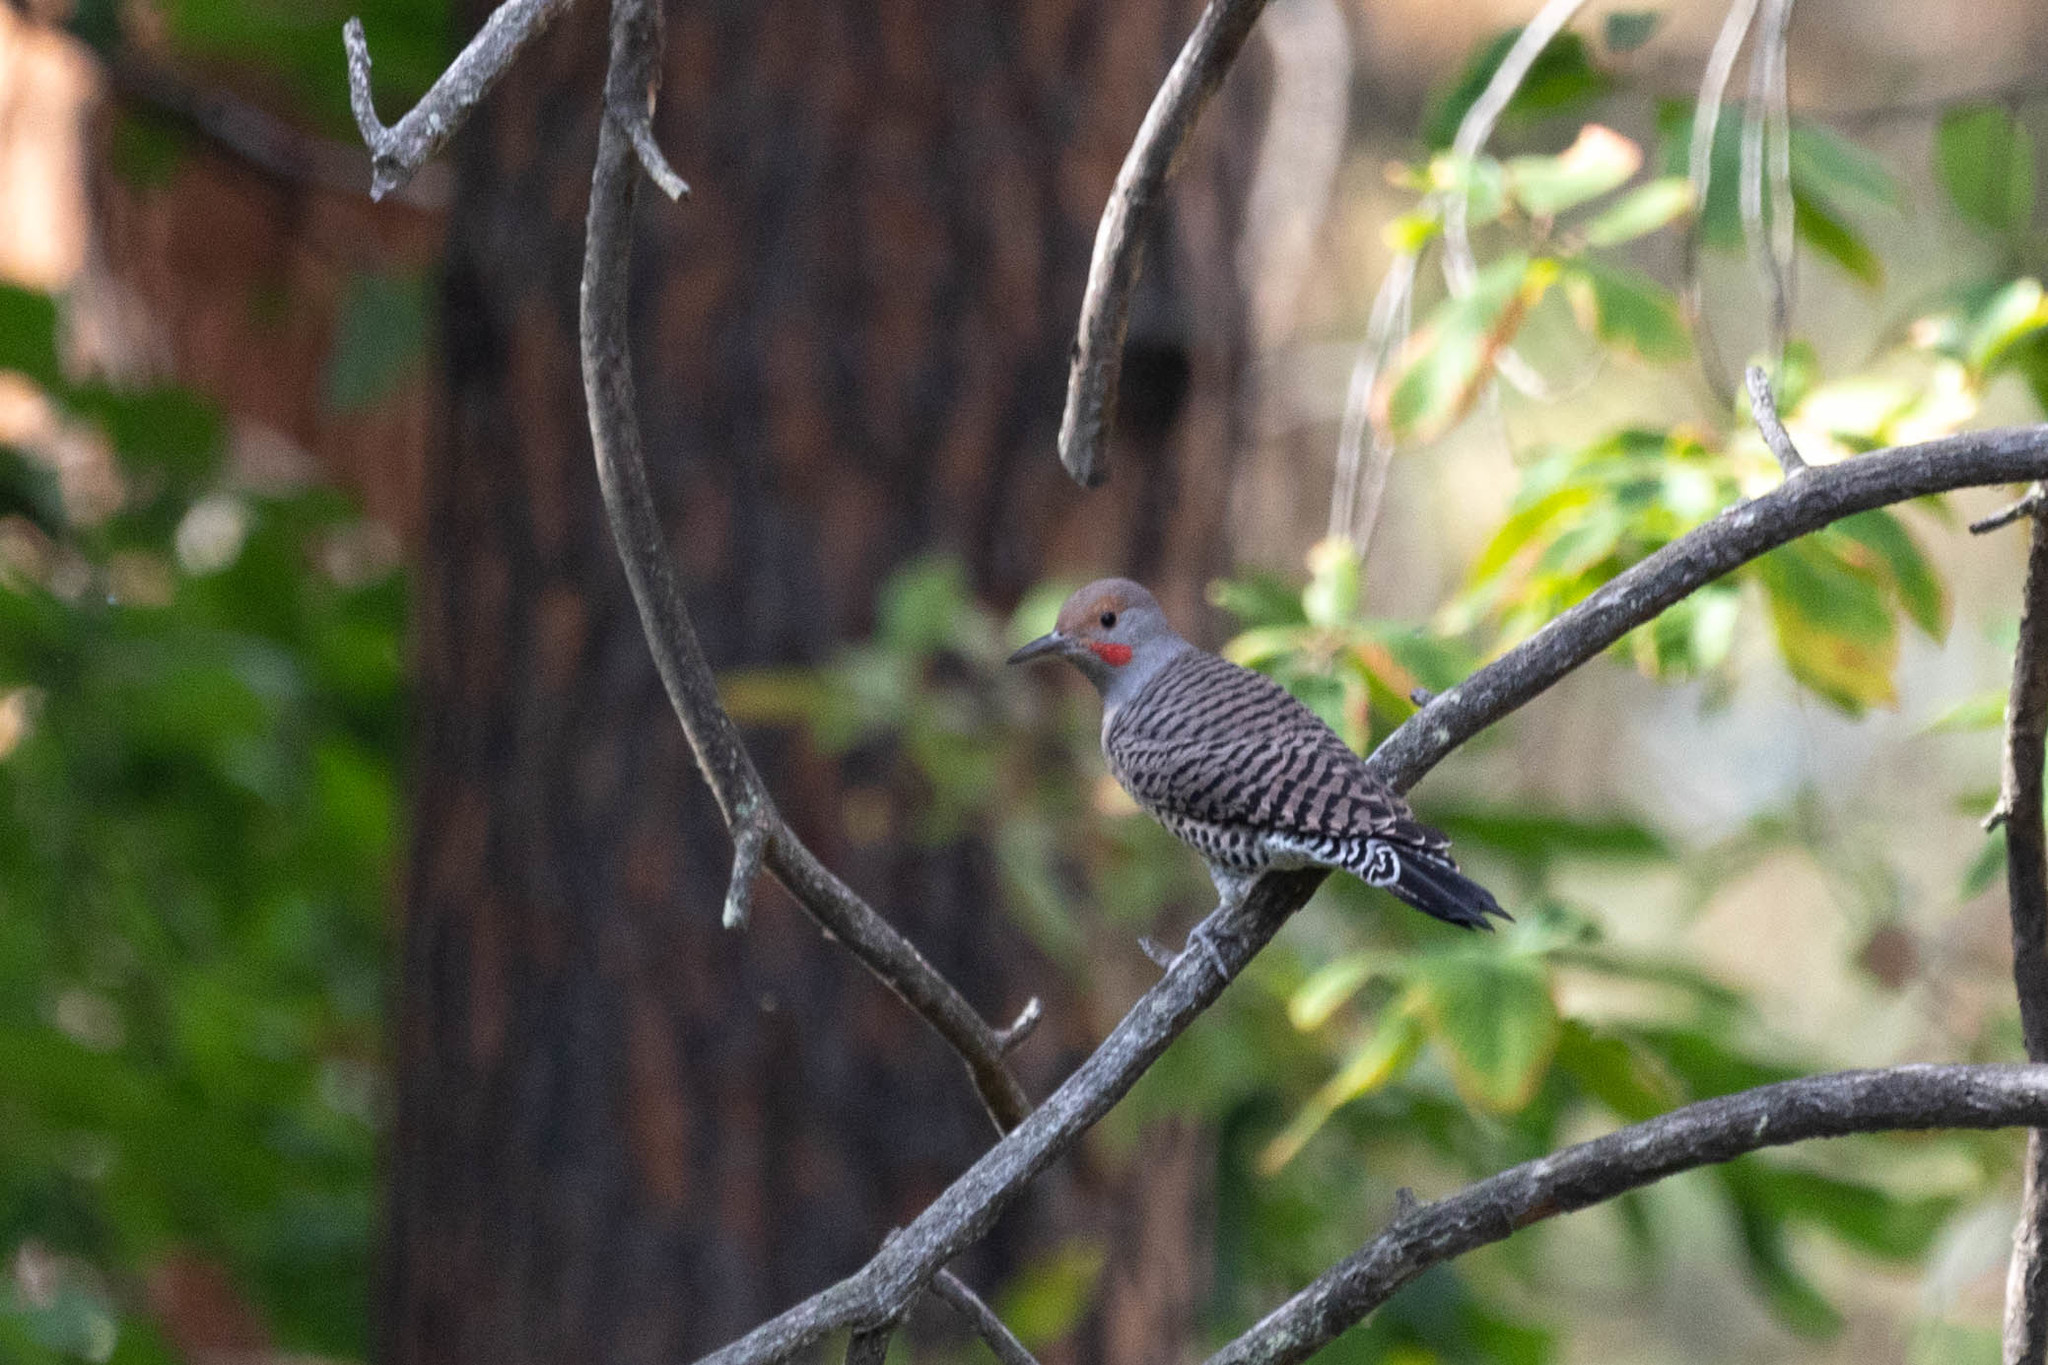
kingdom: Animalia
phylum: Chordata
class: Aves
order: Piciformes
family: Picidae
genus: Colaptes
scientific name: Colaptes auratus
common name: Northern flicker
